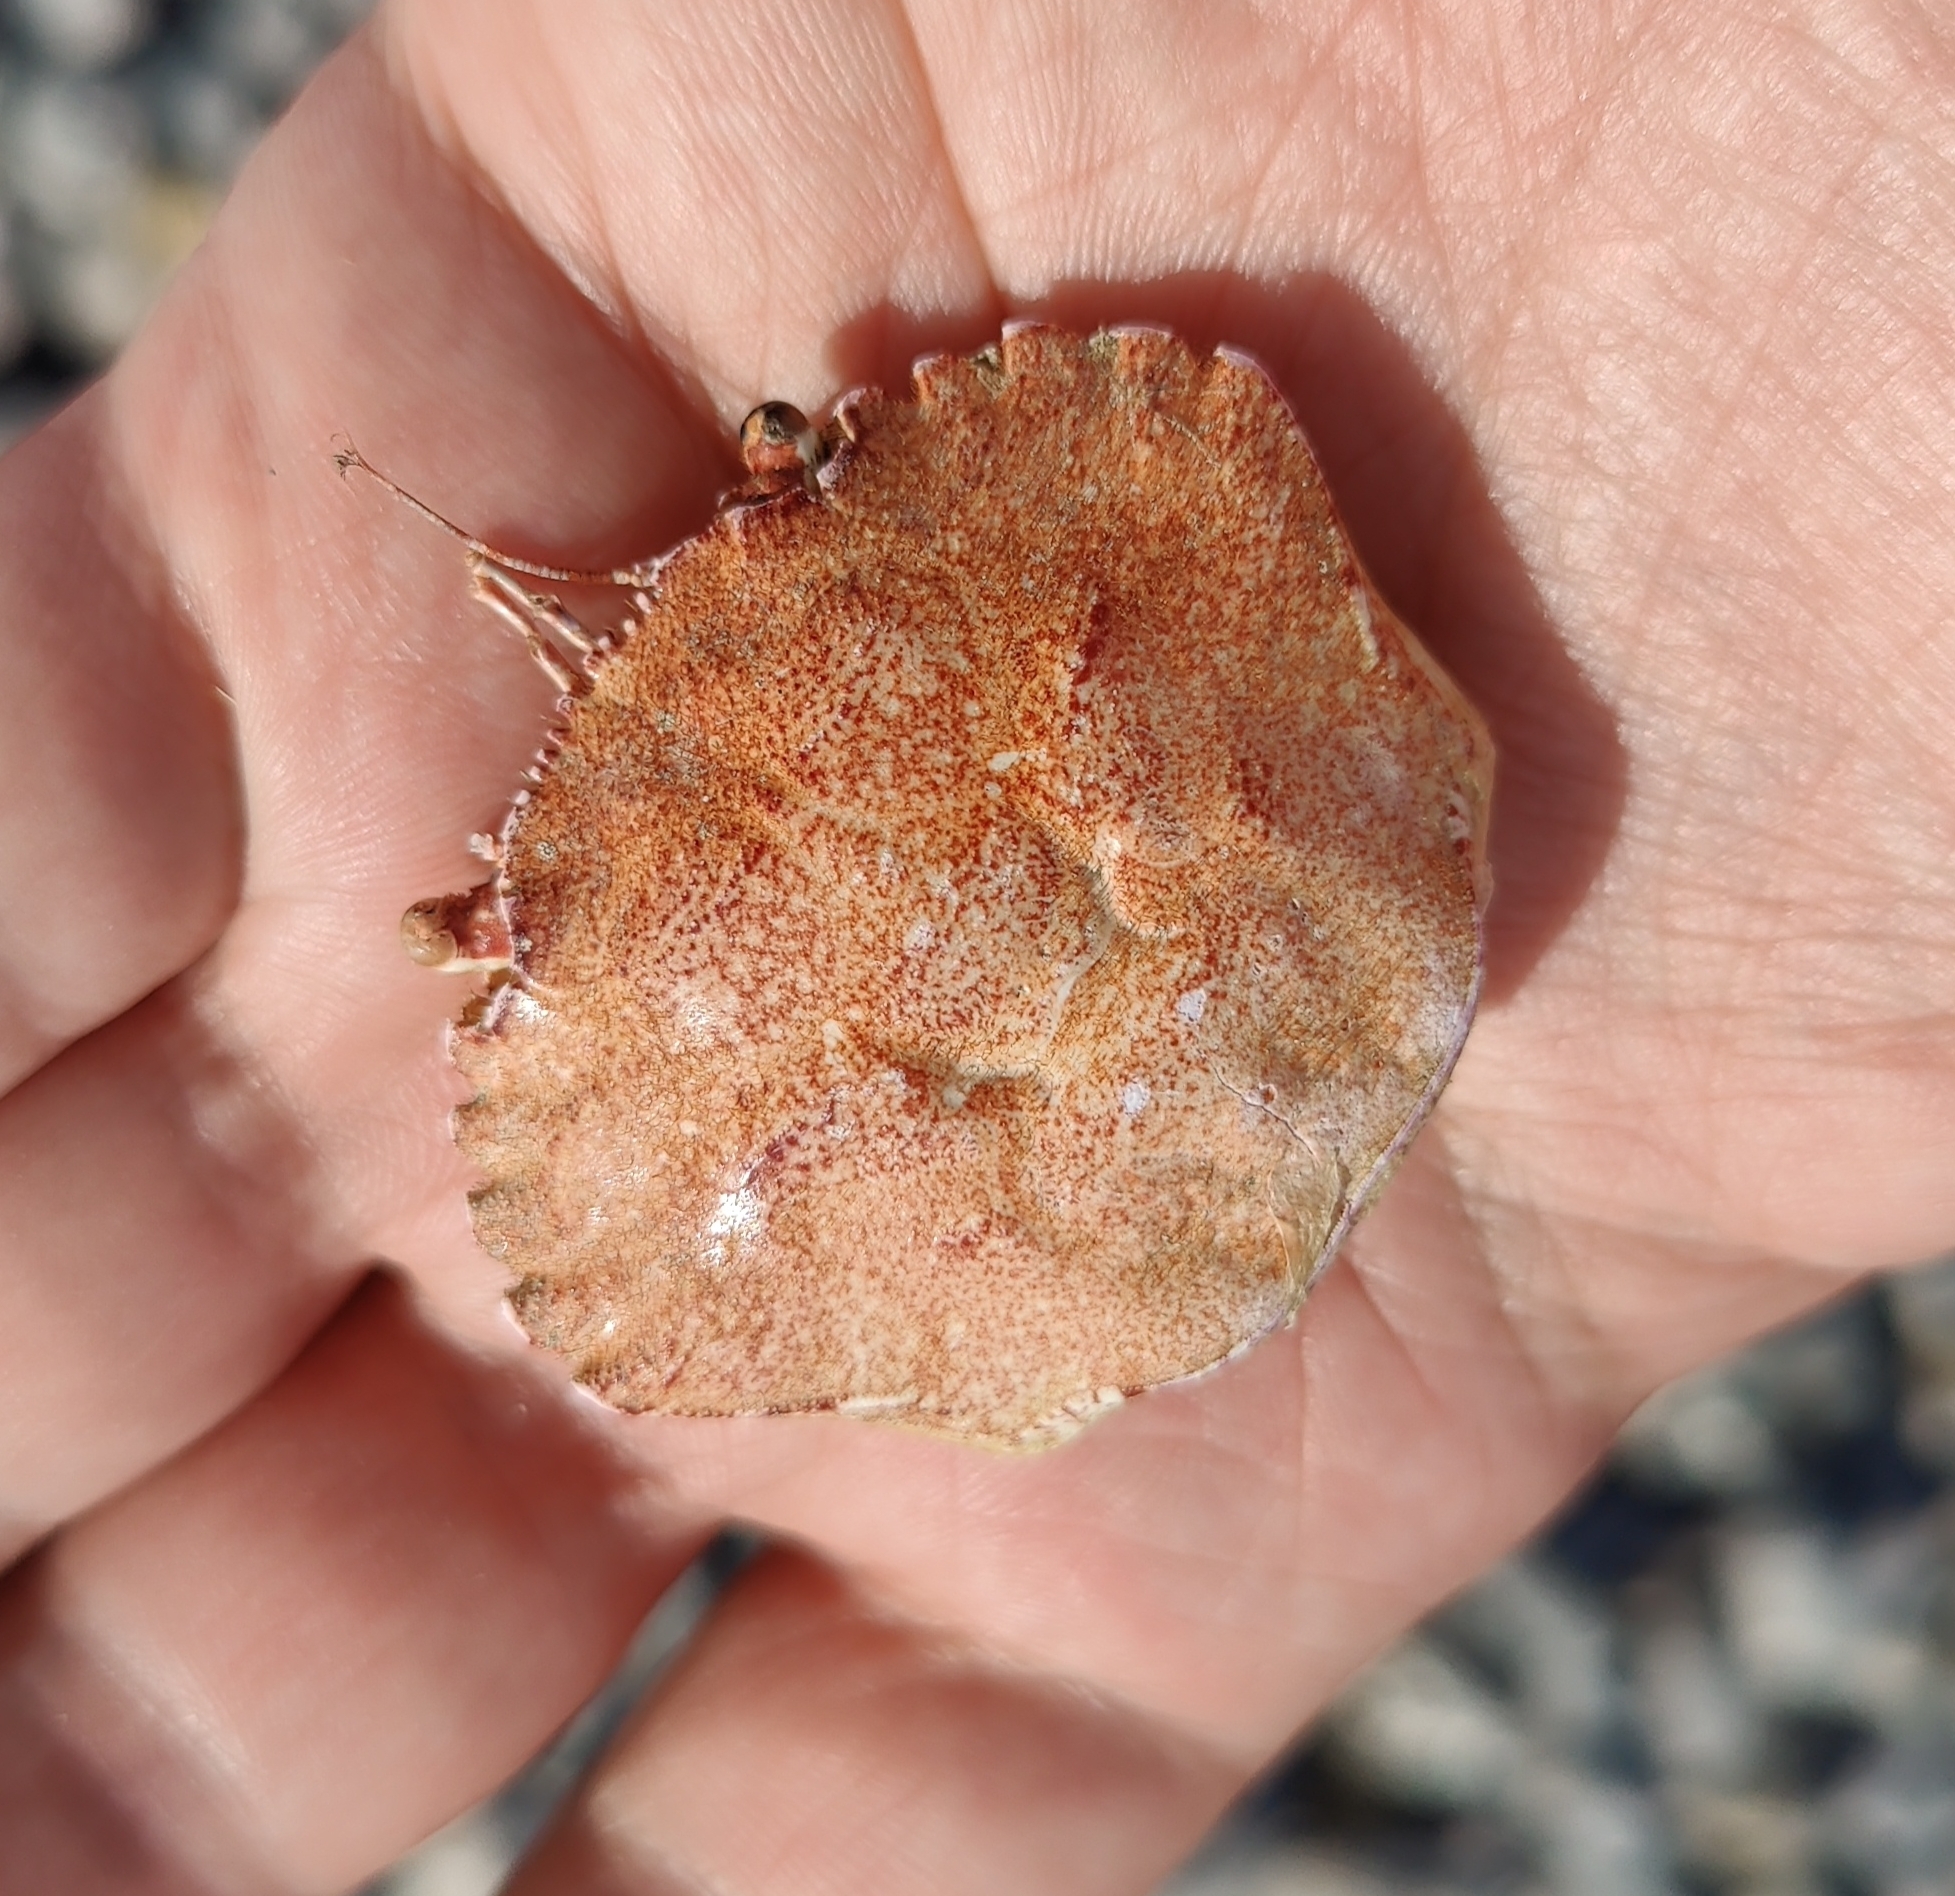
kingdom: Animalia
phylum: Arthropoda
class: Malacostraca
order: Decapoda
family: Polybiidae
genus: Necora
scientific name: Necora puber
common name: Velvet swimming crab
